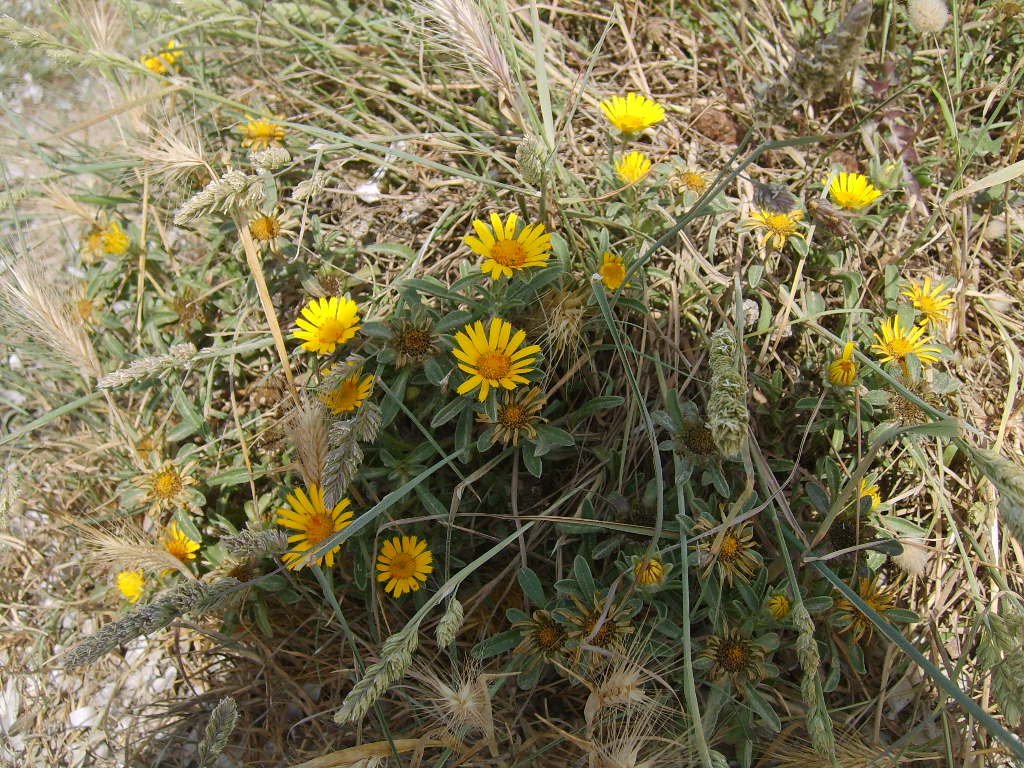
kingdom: Plantae
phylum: Tracheophyta
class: Magnoliopsida
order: Asterales
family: Asteraceae
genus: Pallenis
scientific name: Pallenis maritima
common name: Golden coin daisy
